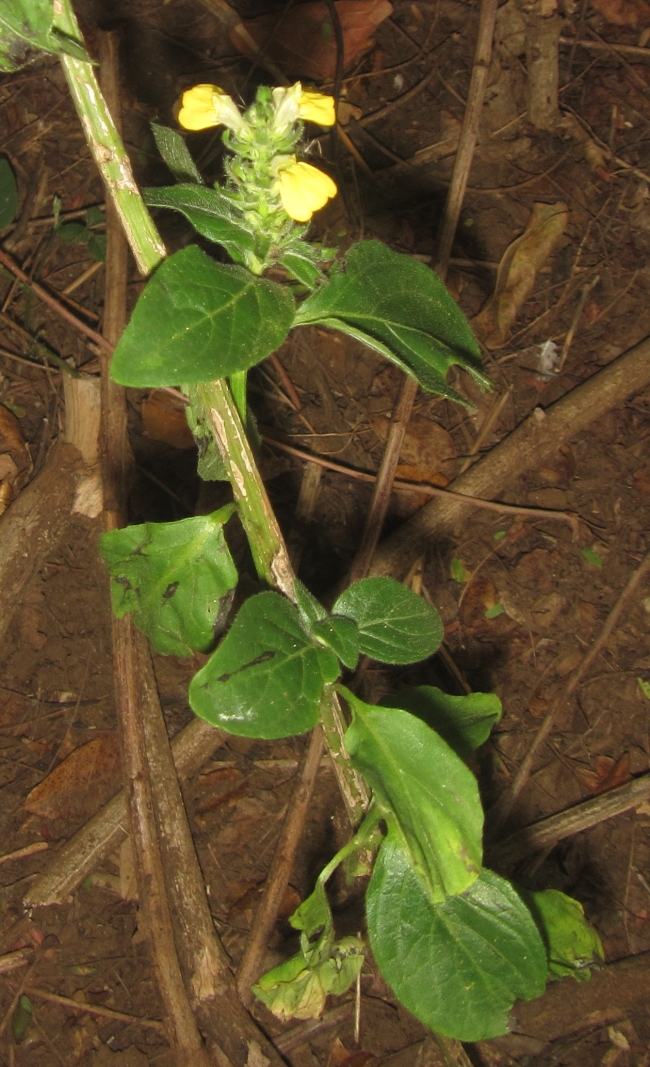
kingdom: Plantae
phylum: Tracheophyta
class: Magnoliopsida
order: Lamiales
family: Acanthaceae
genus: Justicia
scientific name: Justicia flava
